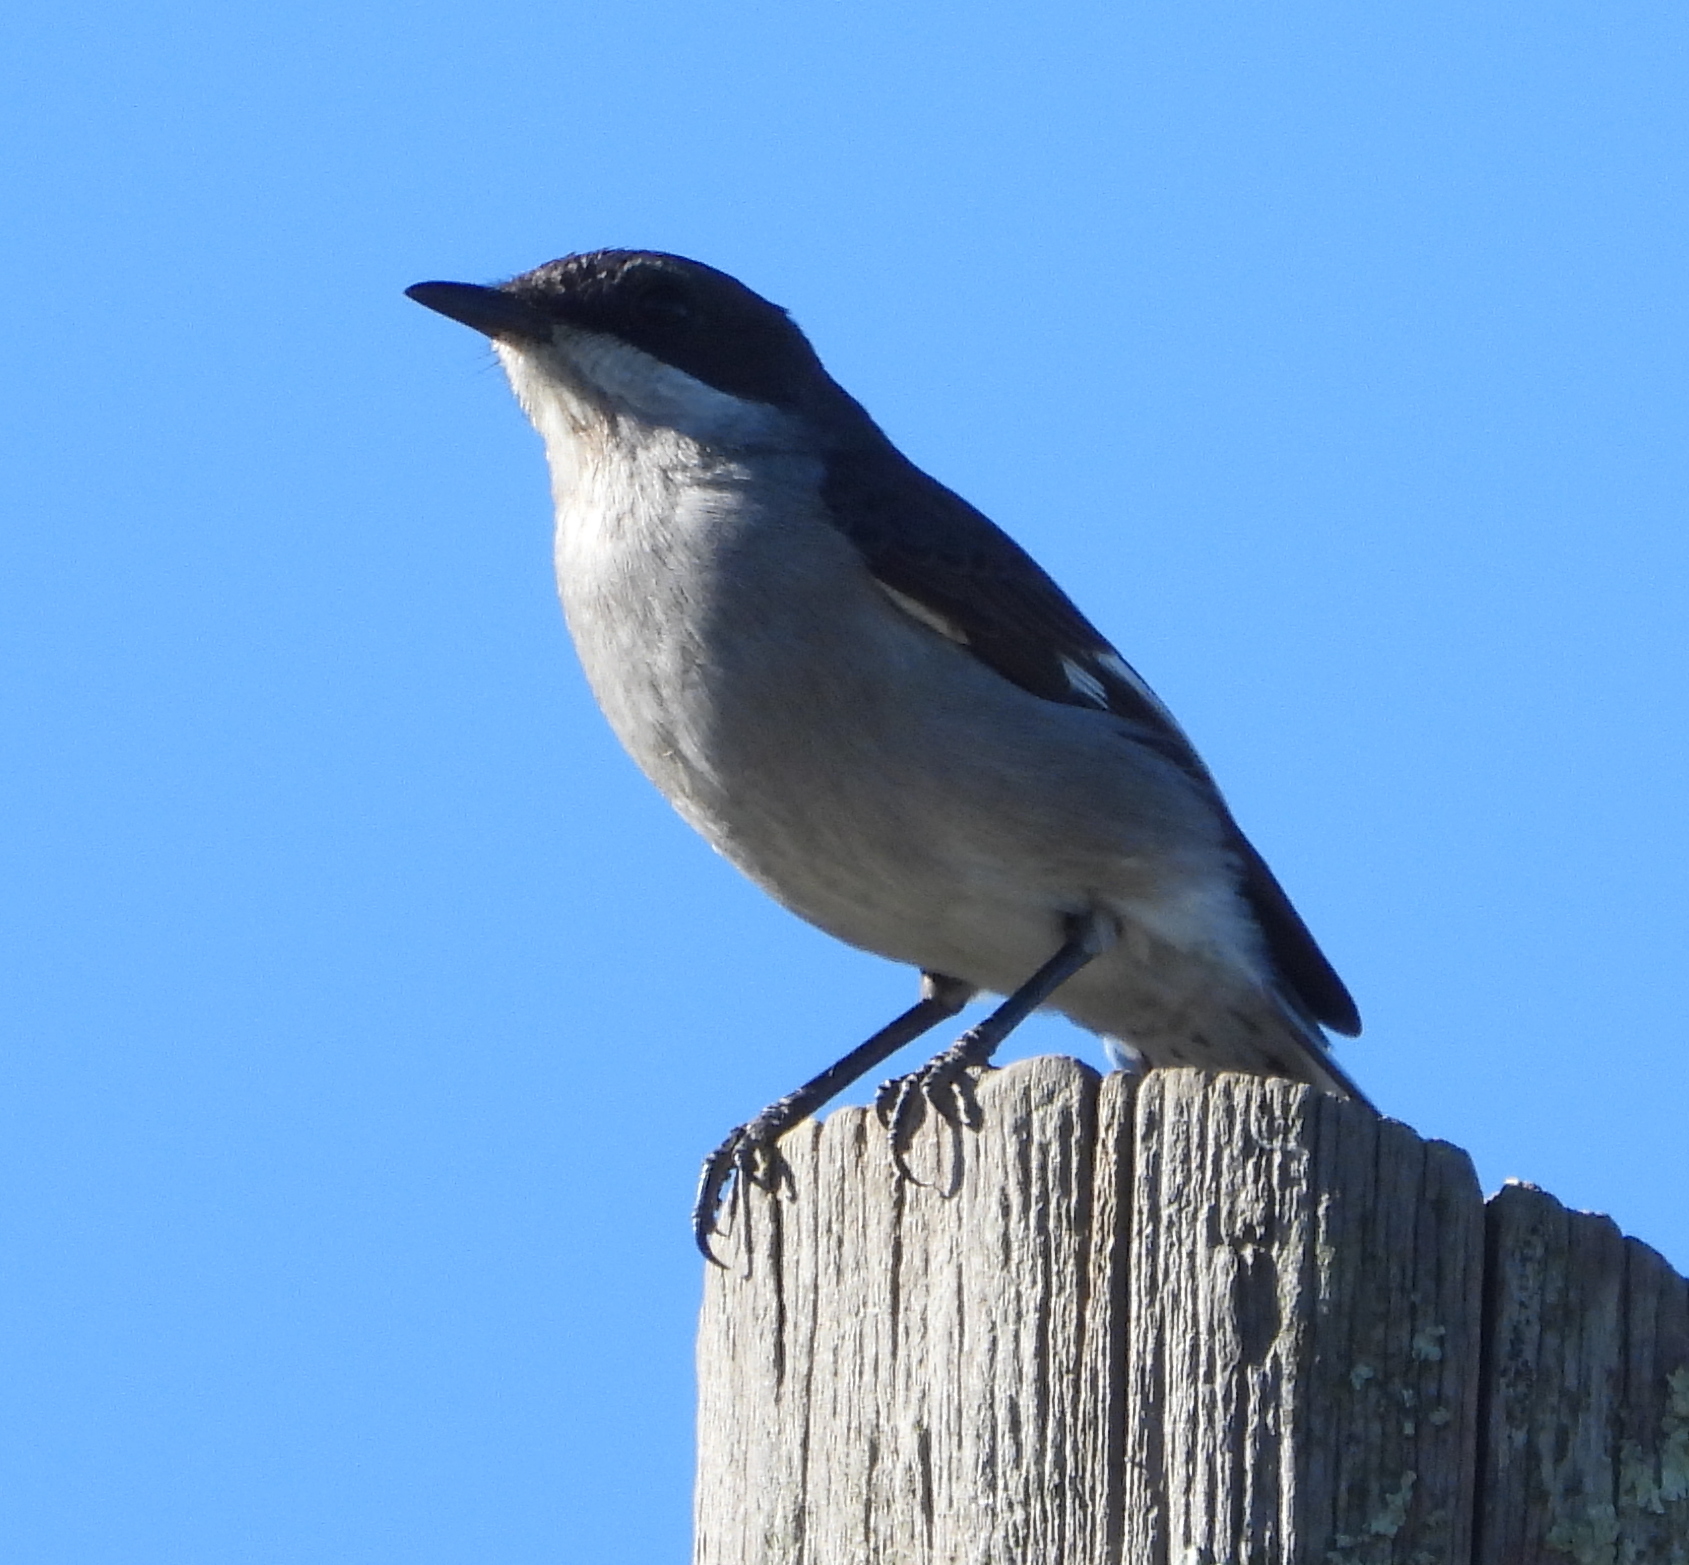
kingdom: Animalia
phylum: Chordata
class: Aves
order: Passeriformes
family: Muscicapidae
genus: Sigelus
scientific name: Sigelus silens
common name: Fiscal flycatcher
